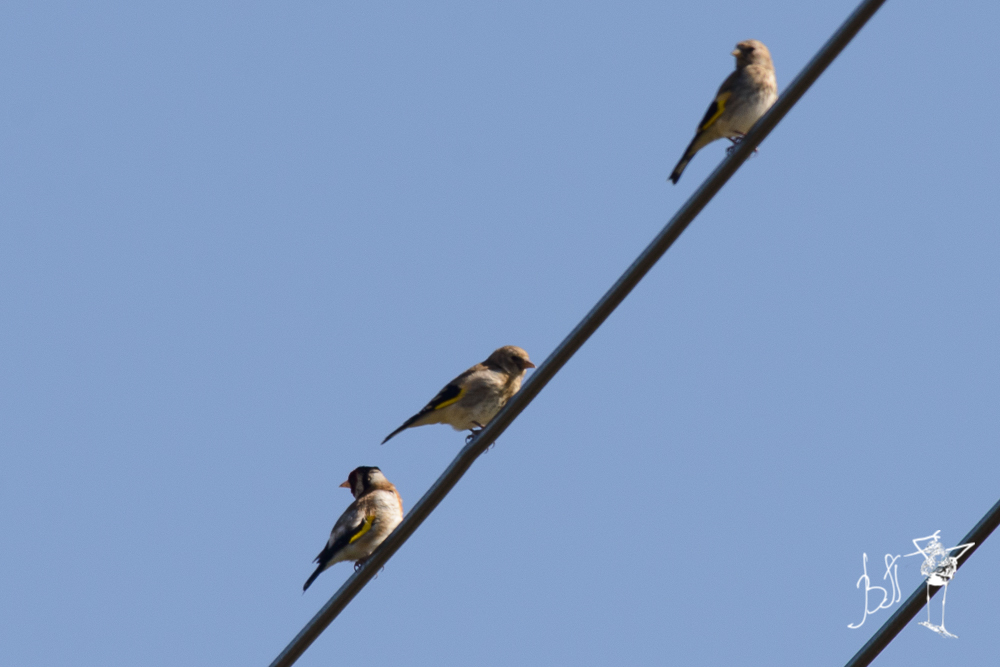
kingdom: Animalia
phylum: Chordata
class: Aves
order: Passeriformes
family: Fringillidae
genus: Carduelis
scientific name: Carduelis carduelis
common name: European goldfinch
